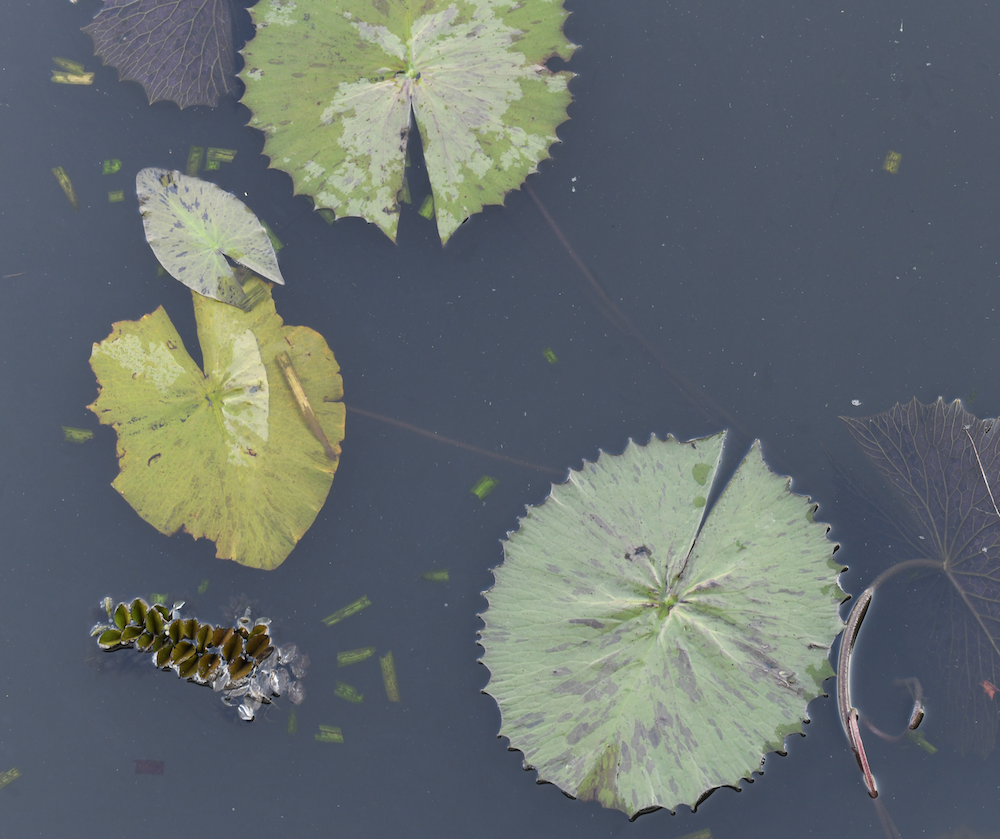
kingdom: Plantae
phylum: Tracheophyta
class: Magnoliopsida
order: Nymphaeales
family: Nymphaeaceae
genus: Nymphaea
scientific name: Nymphaea lotus
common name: White egyptian lotus
